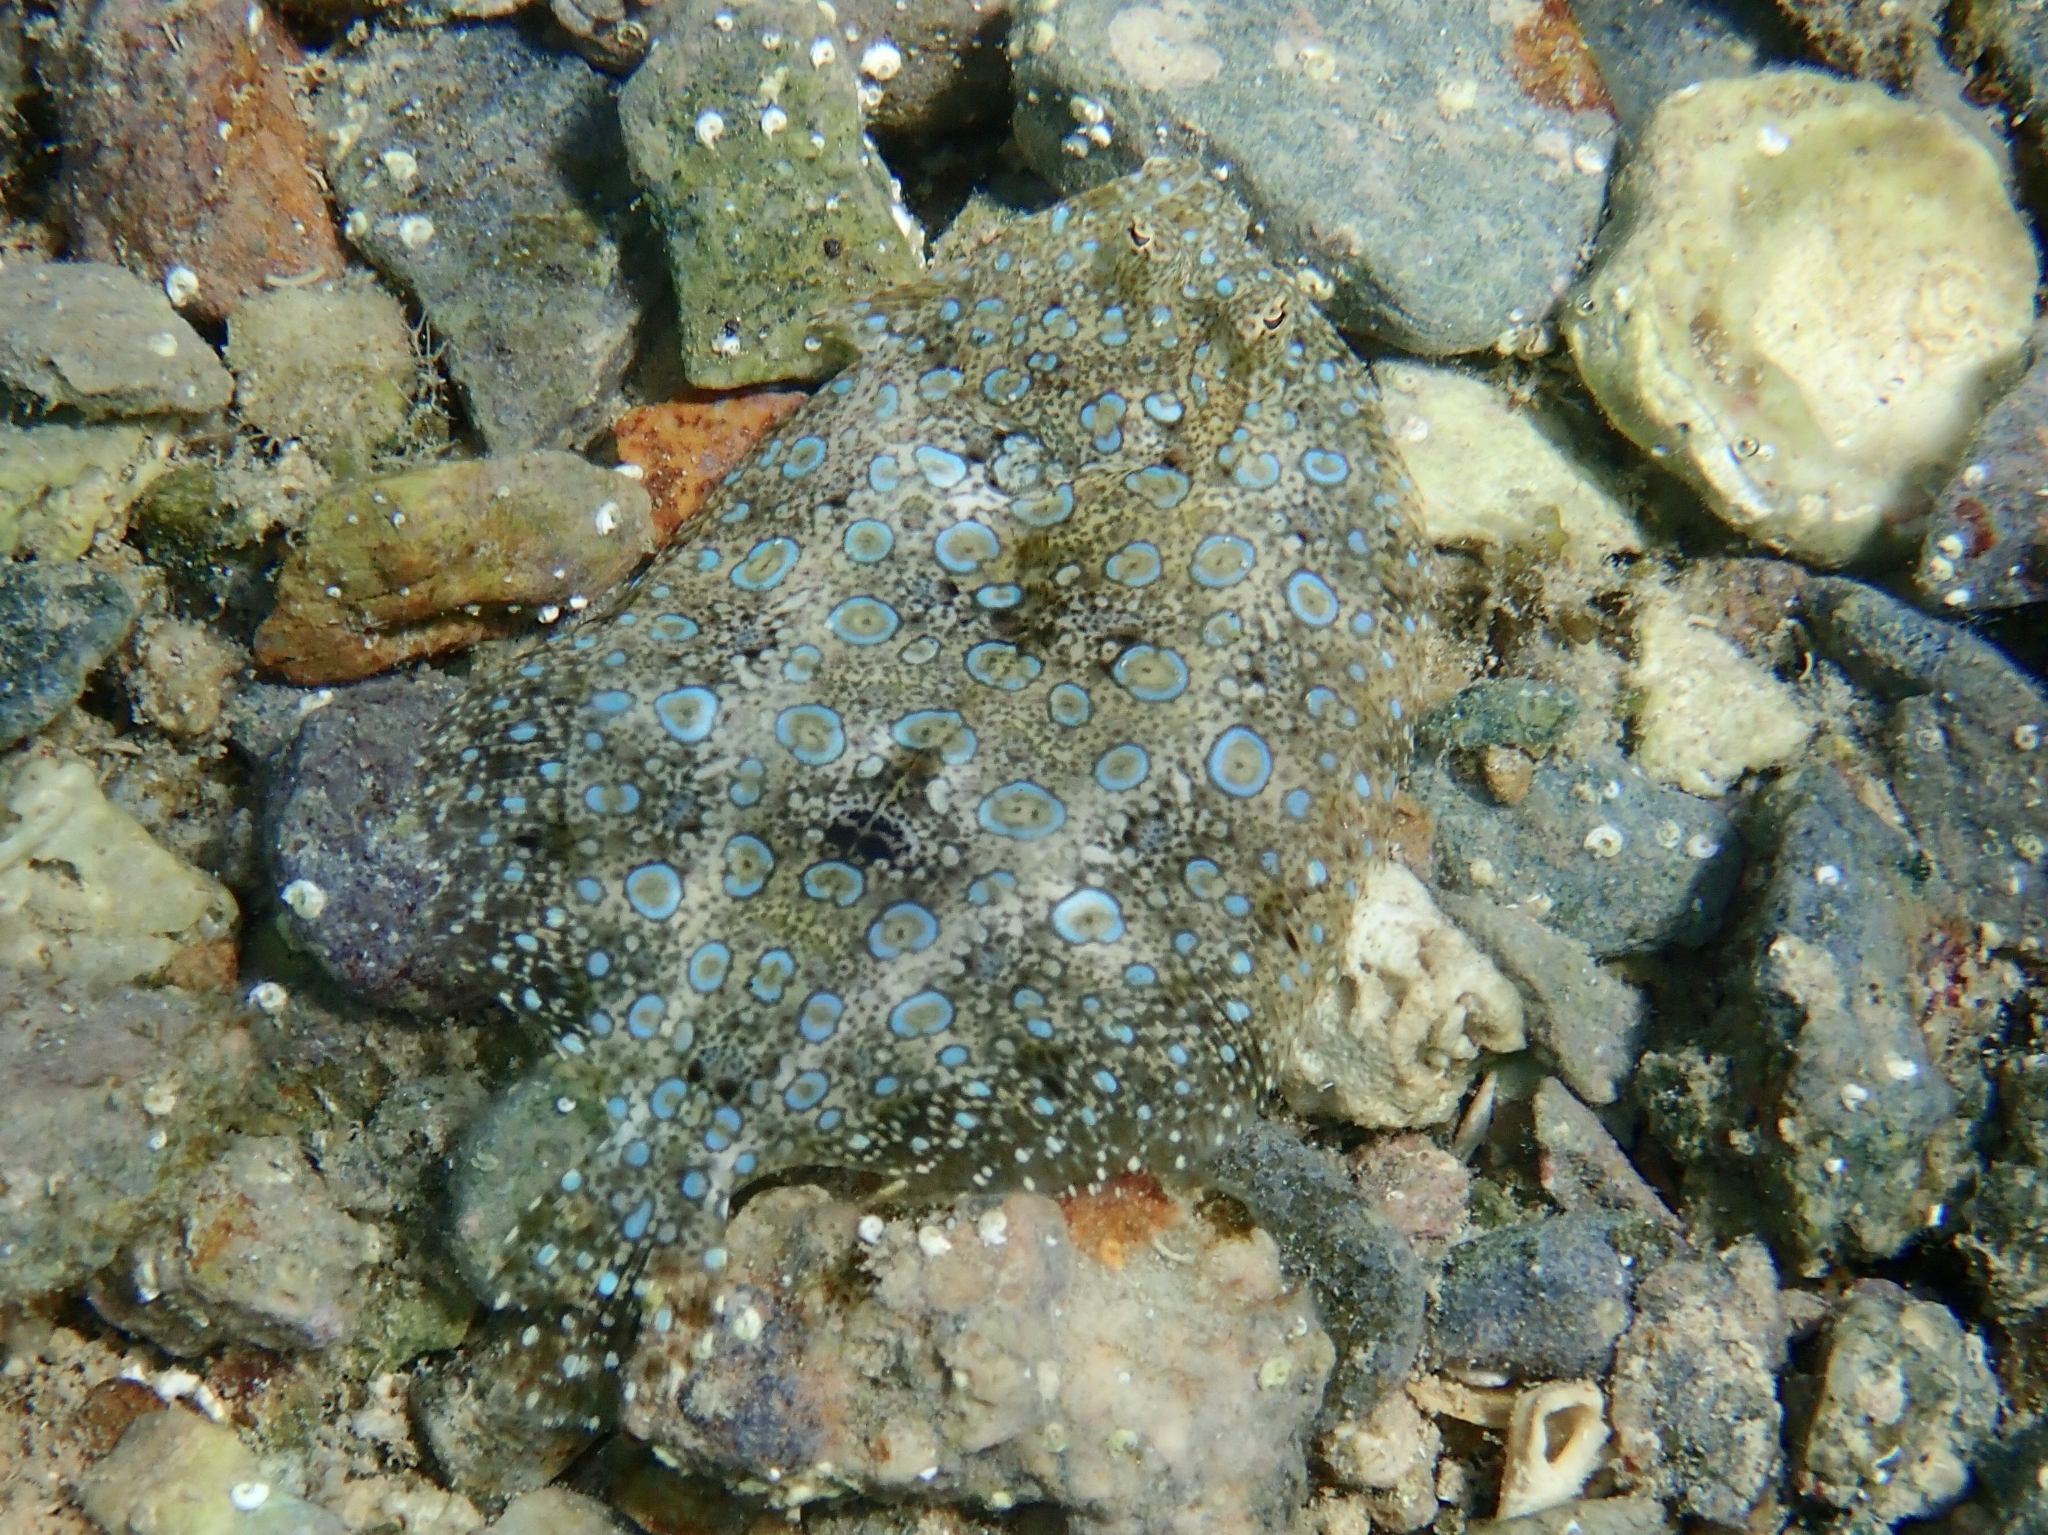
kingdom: Animalia
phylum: Chordata
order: Pleuronectiformes
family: Bothidae
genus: Bothus
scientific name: Bothus lunatus
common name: Peacock flounder
